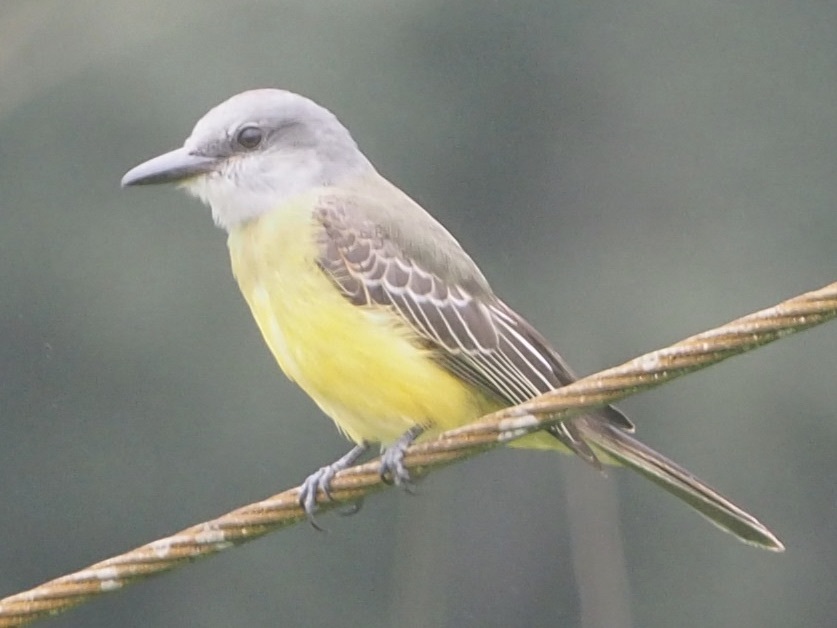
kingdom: Animalia
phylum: Chordata
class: Aves
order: Passeriformes
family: Tyrannidae
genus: Tyrannus
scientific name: Tyrannus melancholicus
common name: Tropical kingbird
